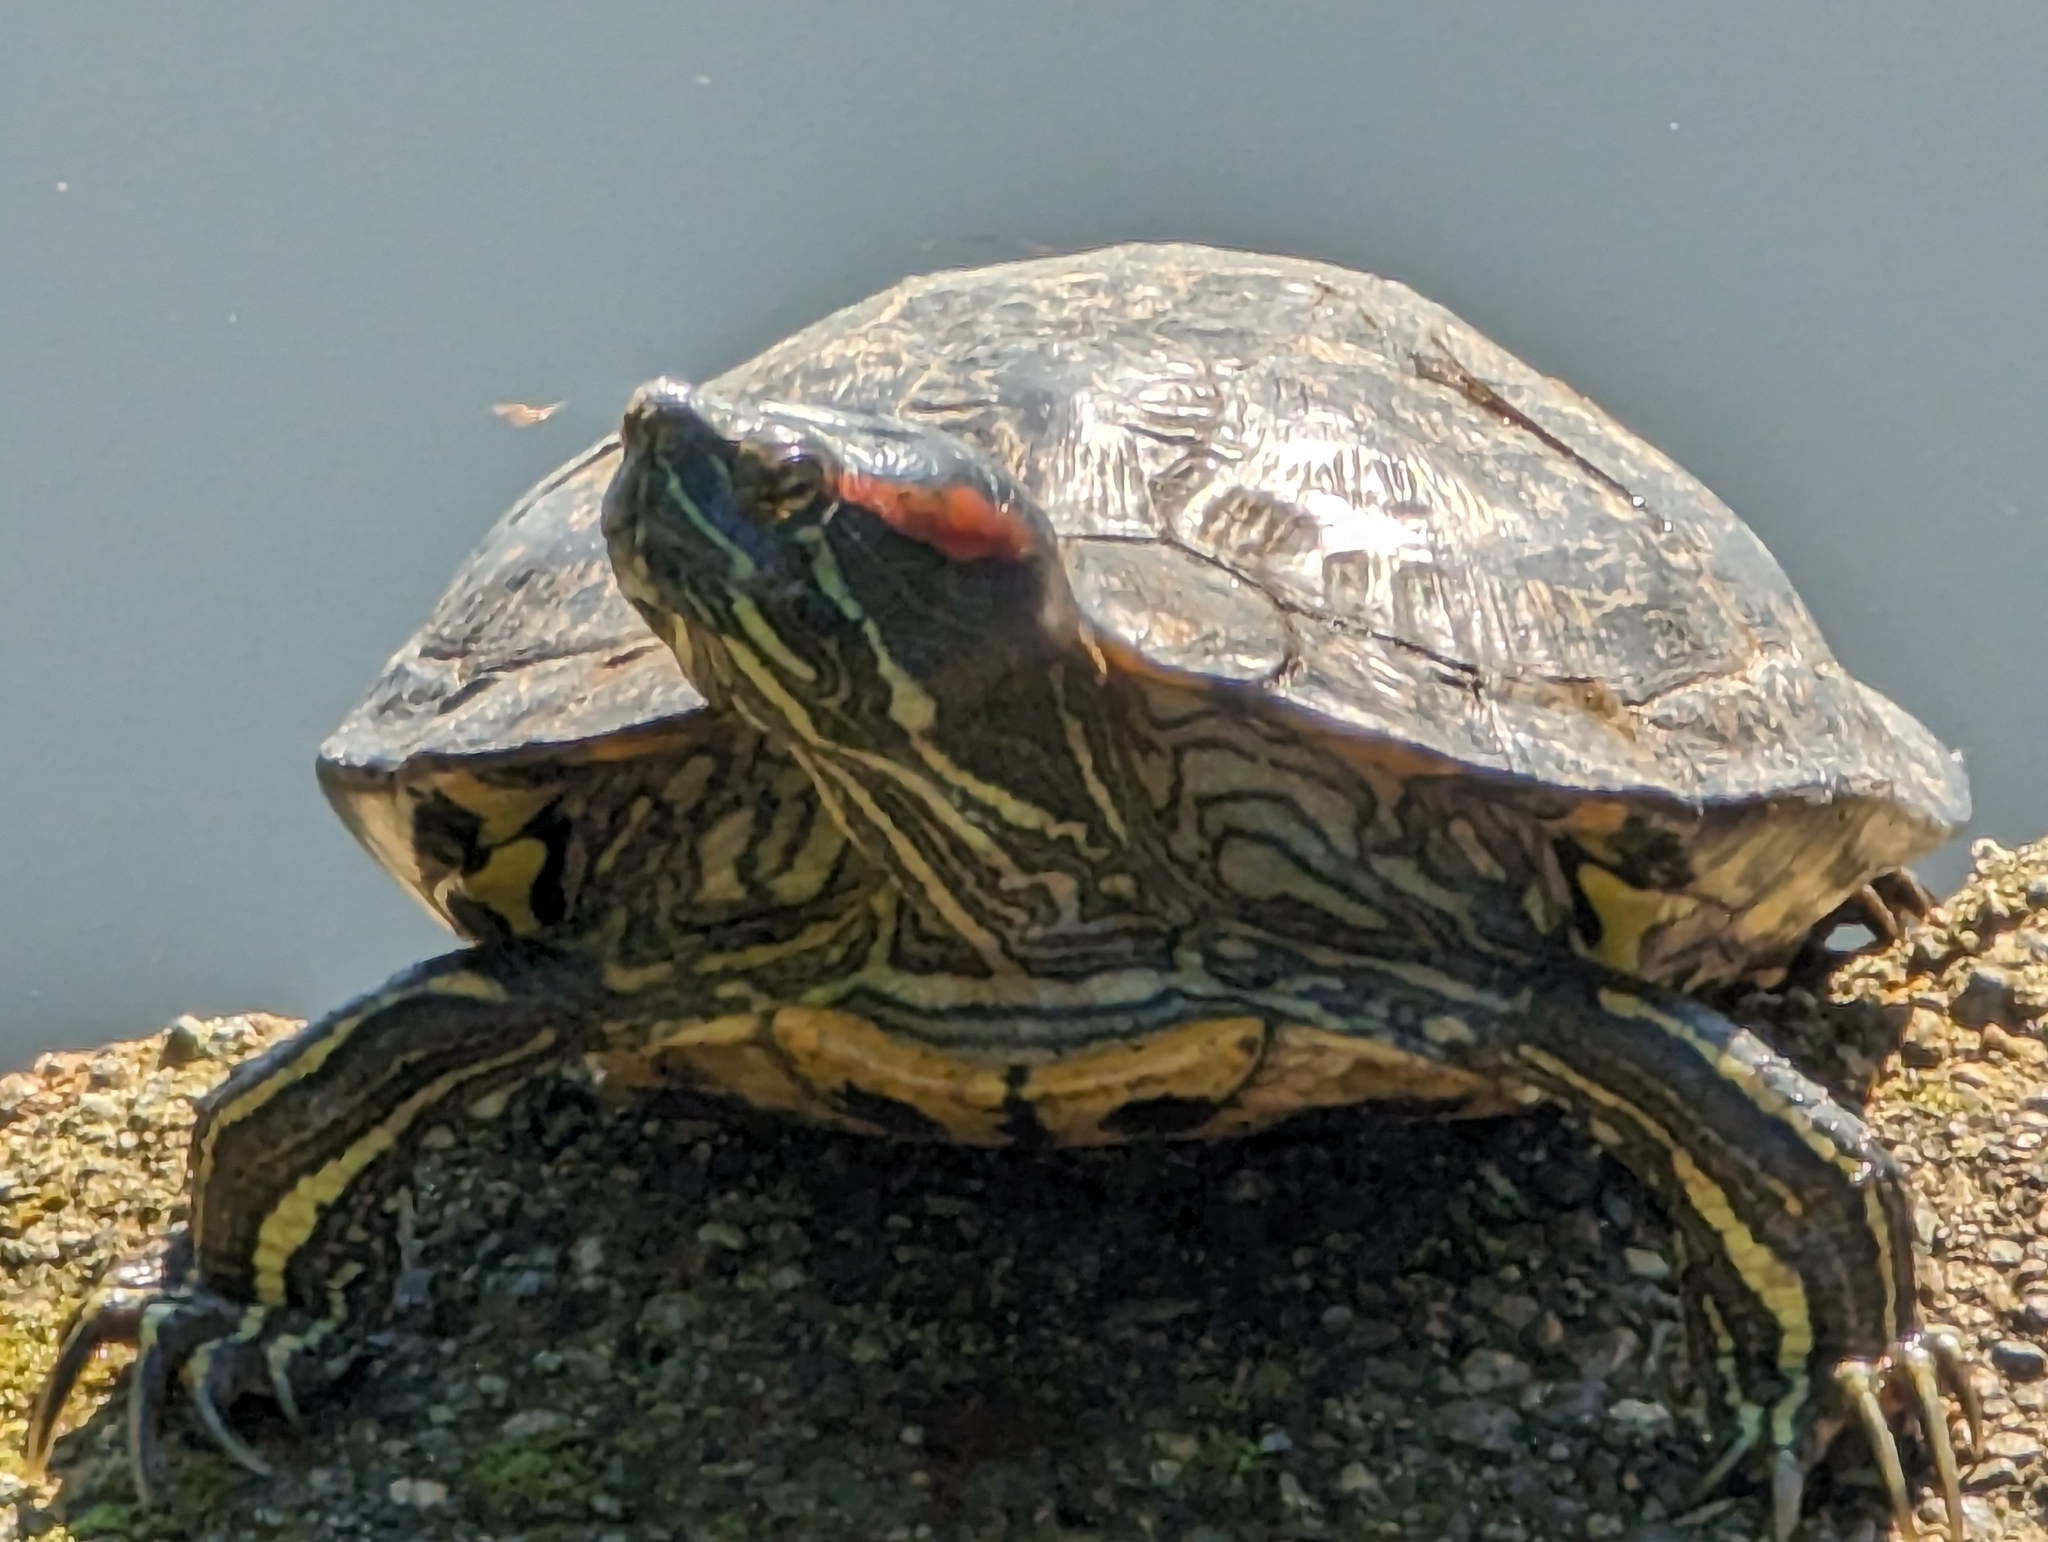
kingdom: Animalia
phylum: Chordata
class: Testudines
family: Emydidae
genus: Trachemys
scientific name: Trachemys scripta
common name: Slider
